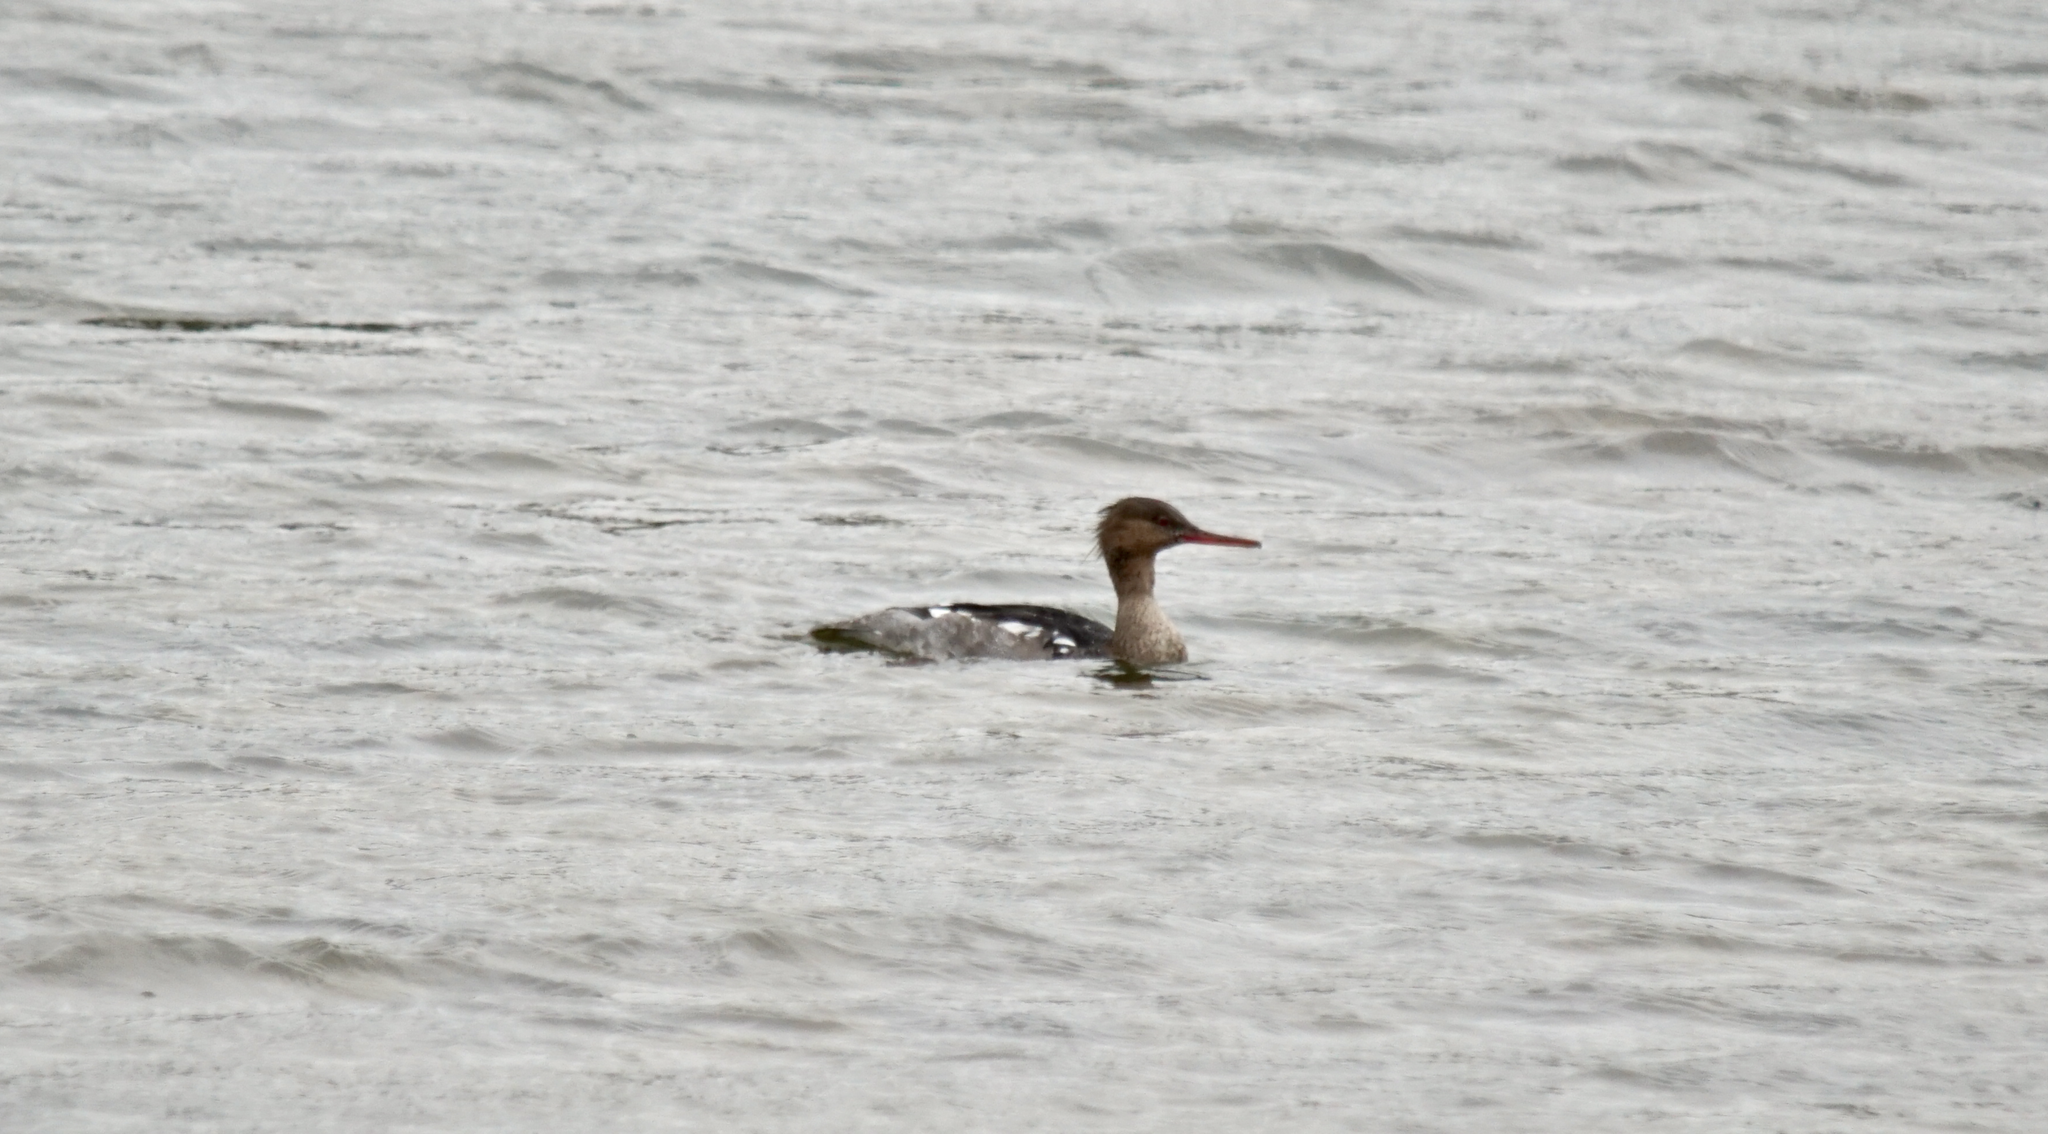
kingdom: Animalia
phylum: Chordata
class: Aves
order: Anseriformes
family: Anatidae
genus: Mergus
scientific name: Mergus serrator
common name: Red-breasted merganser
